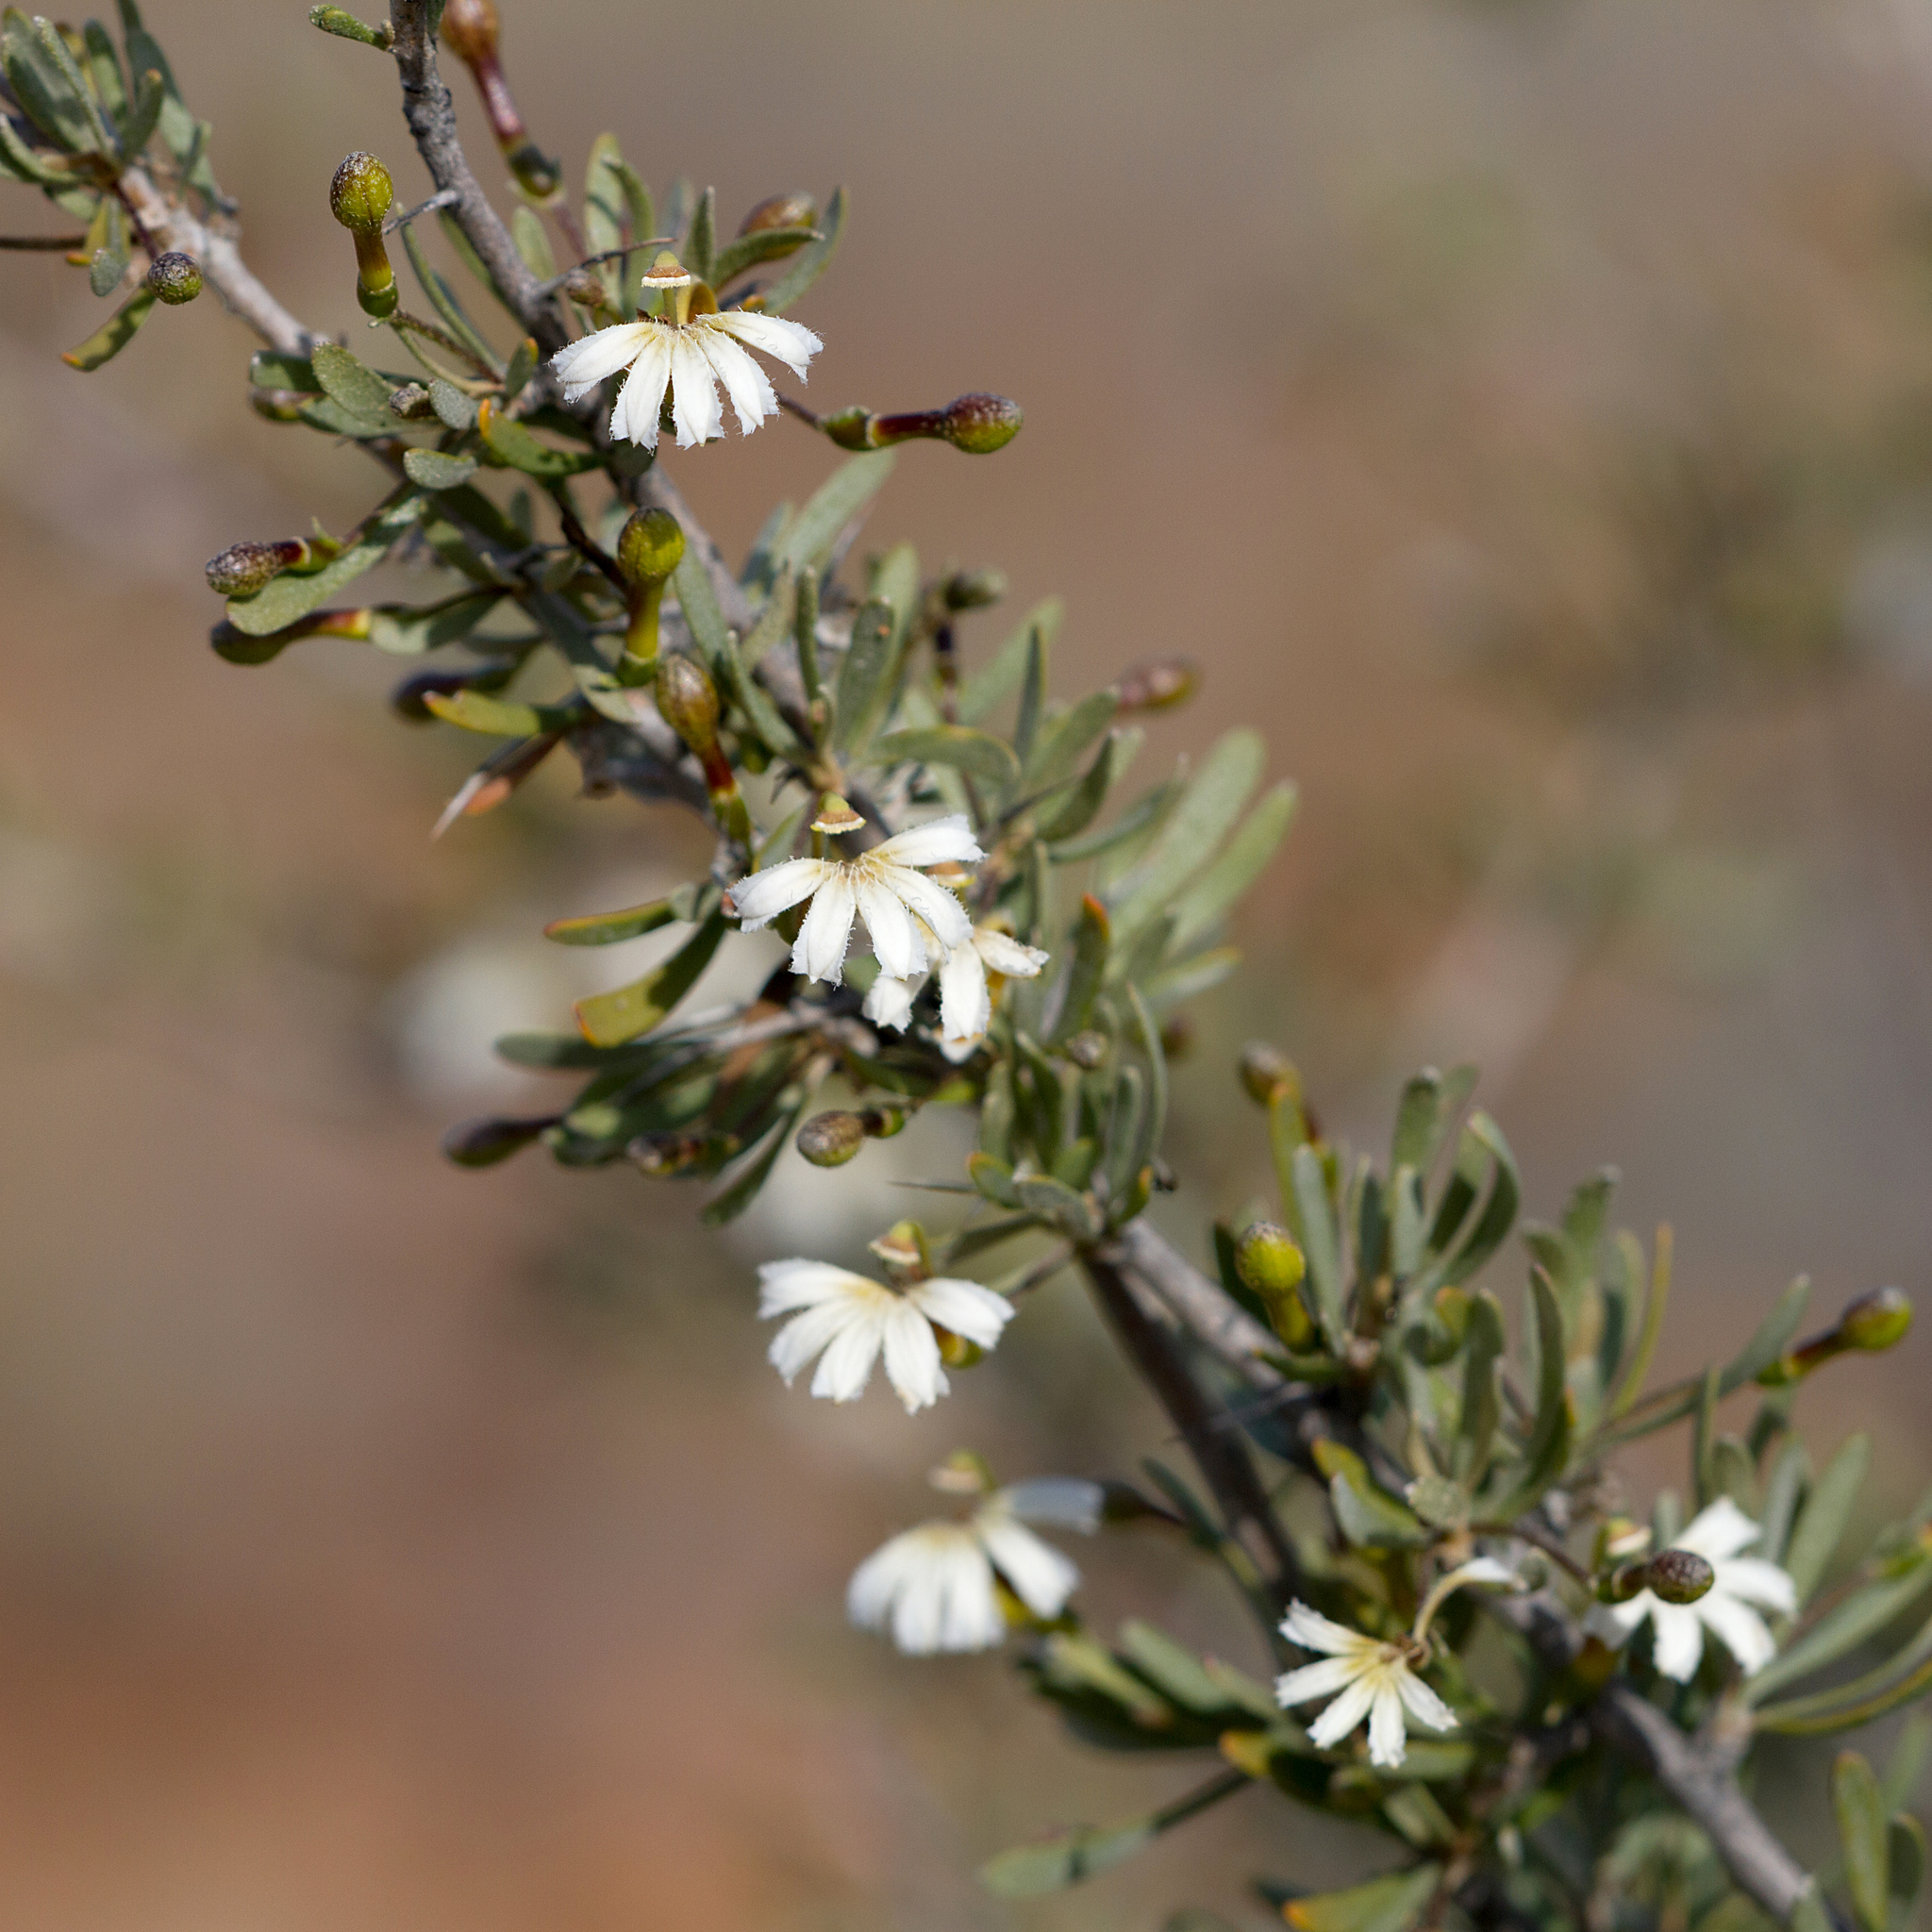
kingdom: Plantae
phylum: Tracheophyta
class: Magnoliopsida
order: Asterales
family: Goodeniaceae
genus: Scaevola
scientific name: Scaevola spinescens
